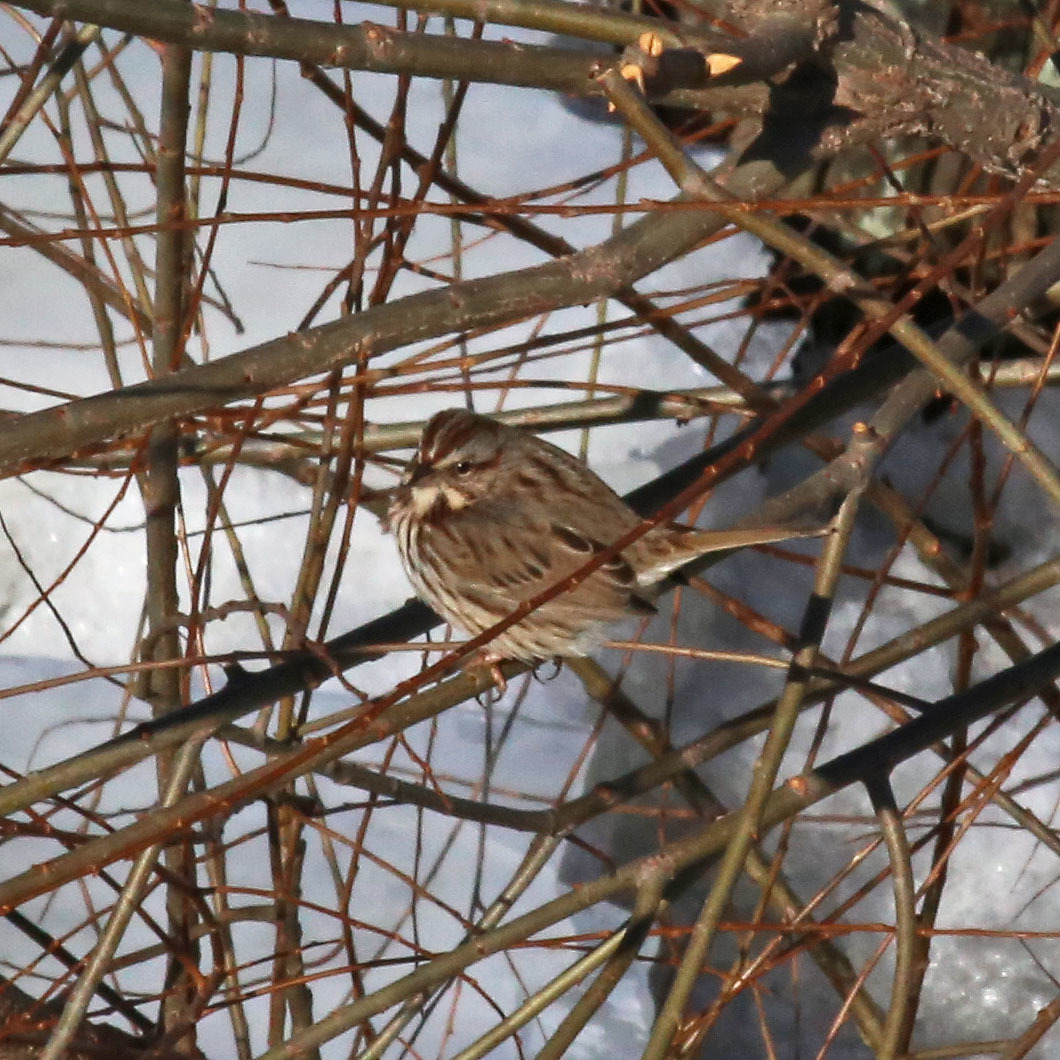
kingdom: Animalia
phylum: Chordata
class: Aves
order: Passeriformes
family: Passerellidae
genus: Melospiza
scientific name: Melospiza melodia
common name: Song sparrow
